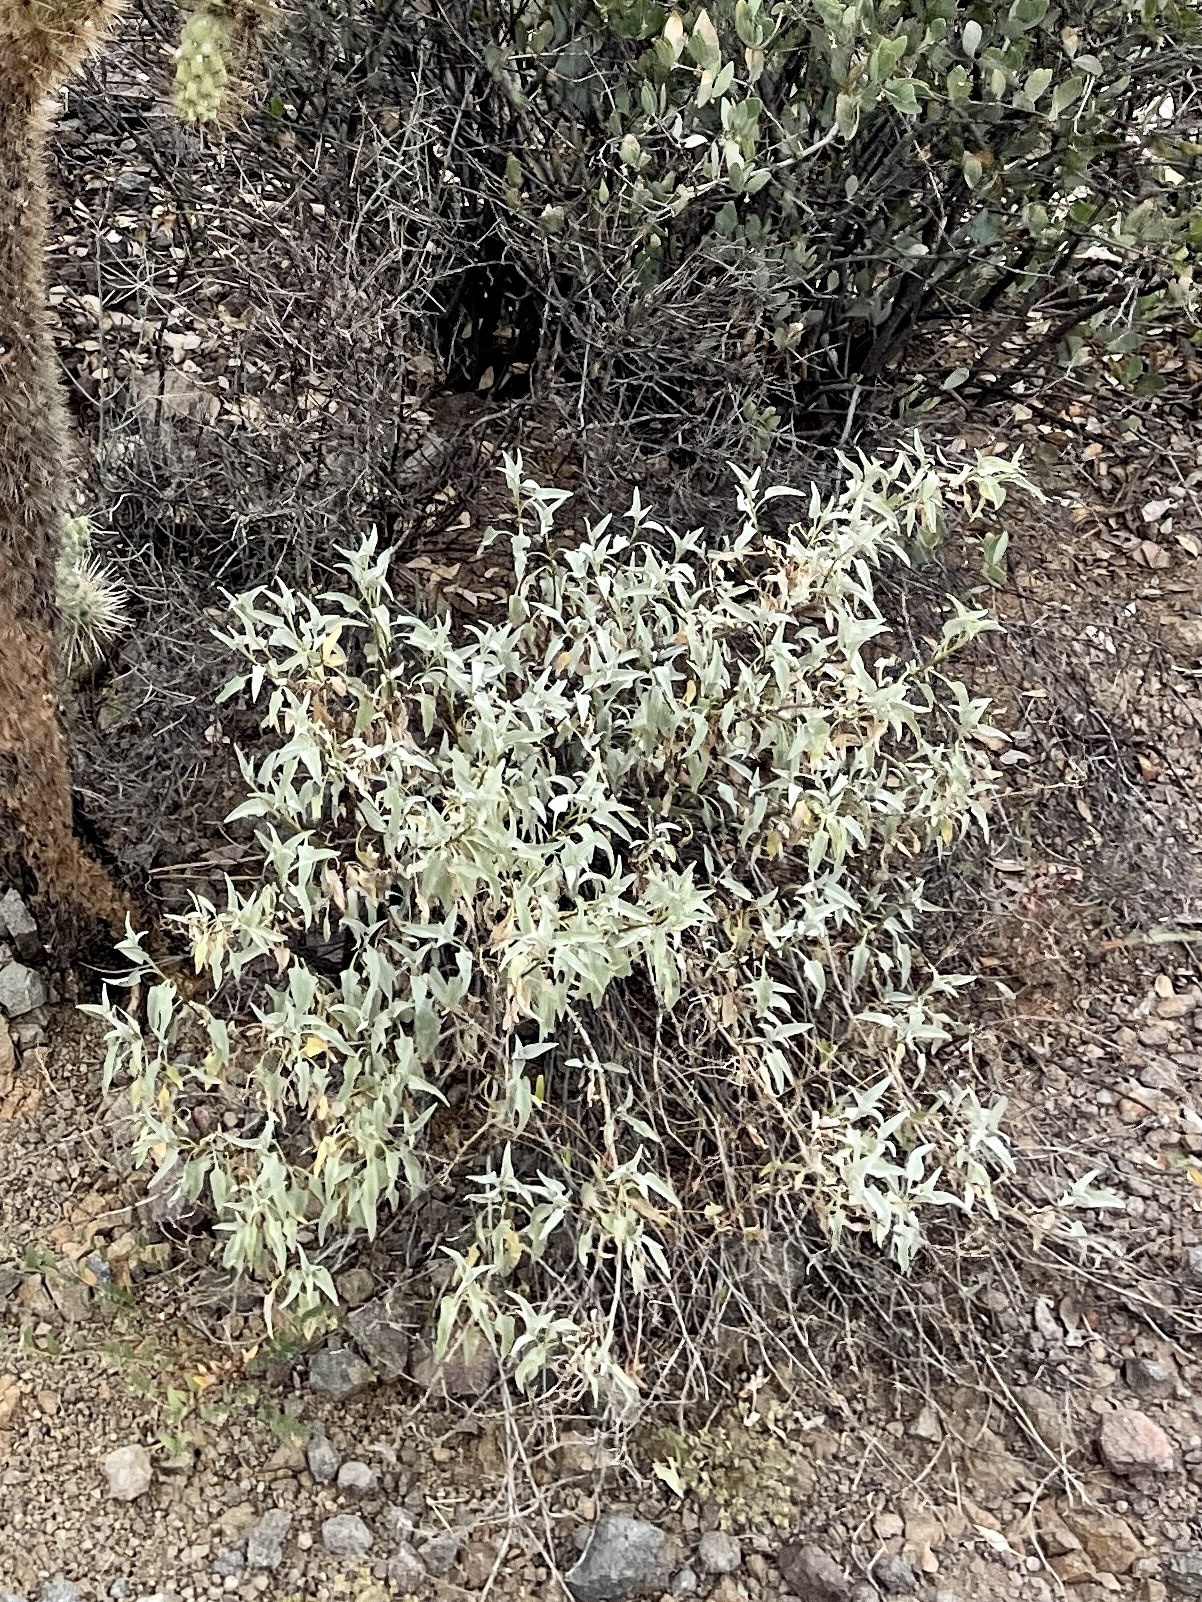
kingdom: Plantae
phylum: Tracheophyta
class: Magnoliopsida
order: Asterales
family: Asteraceae
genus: Ambrosia
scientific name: Ambrosia deltoidea
